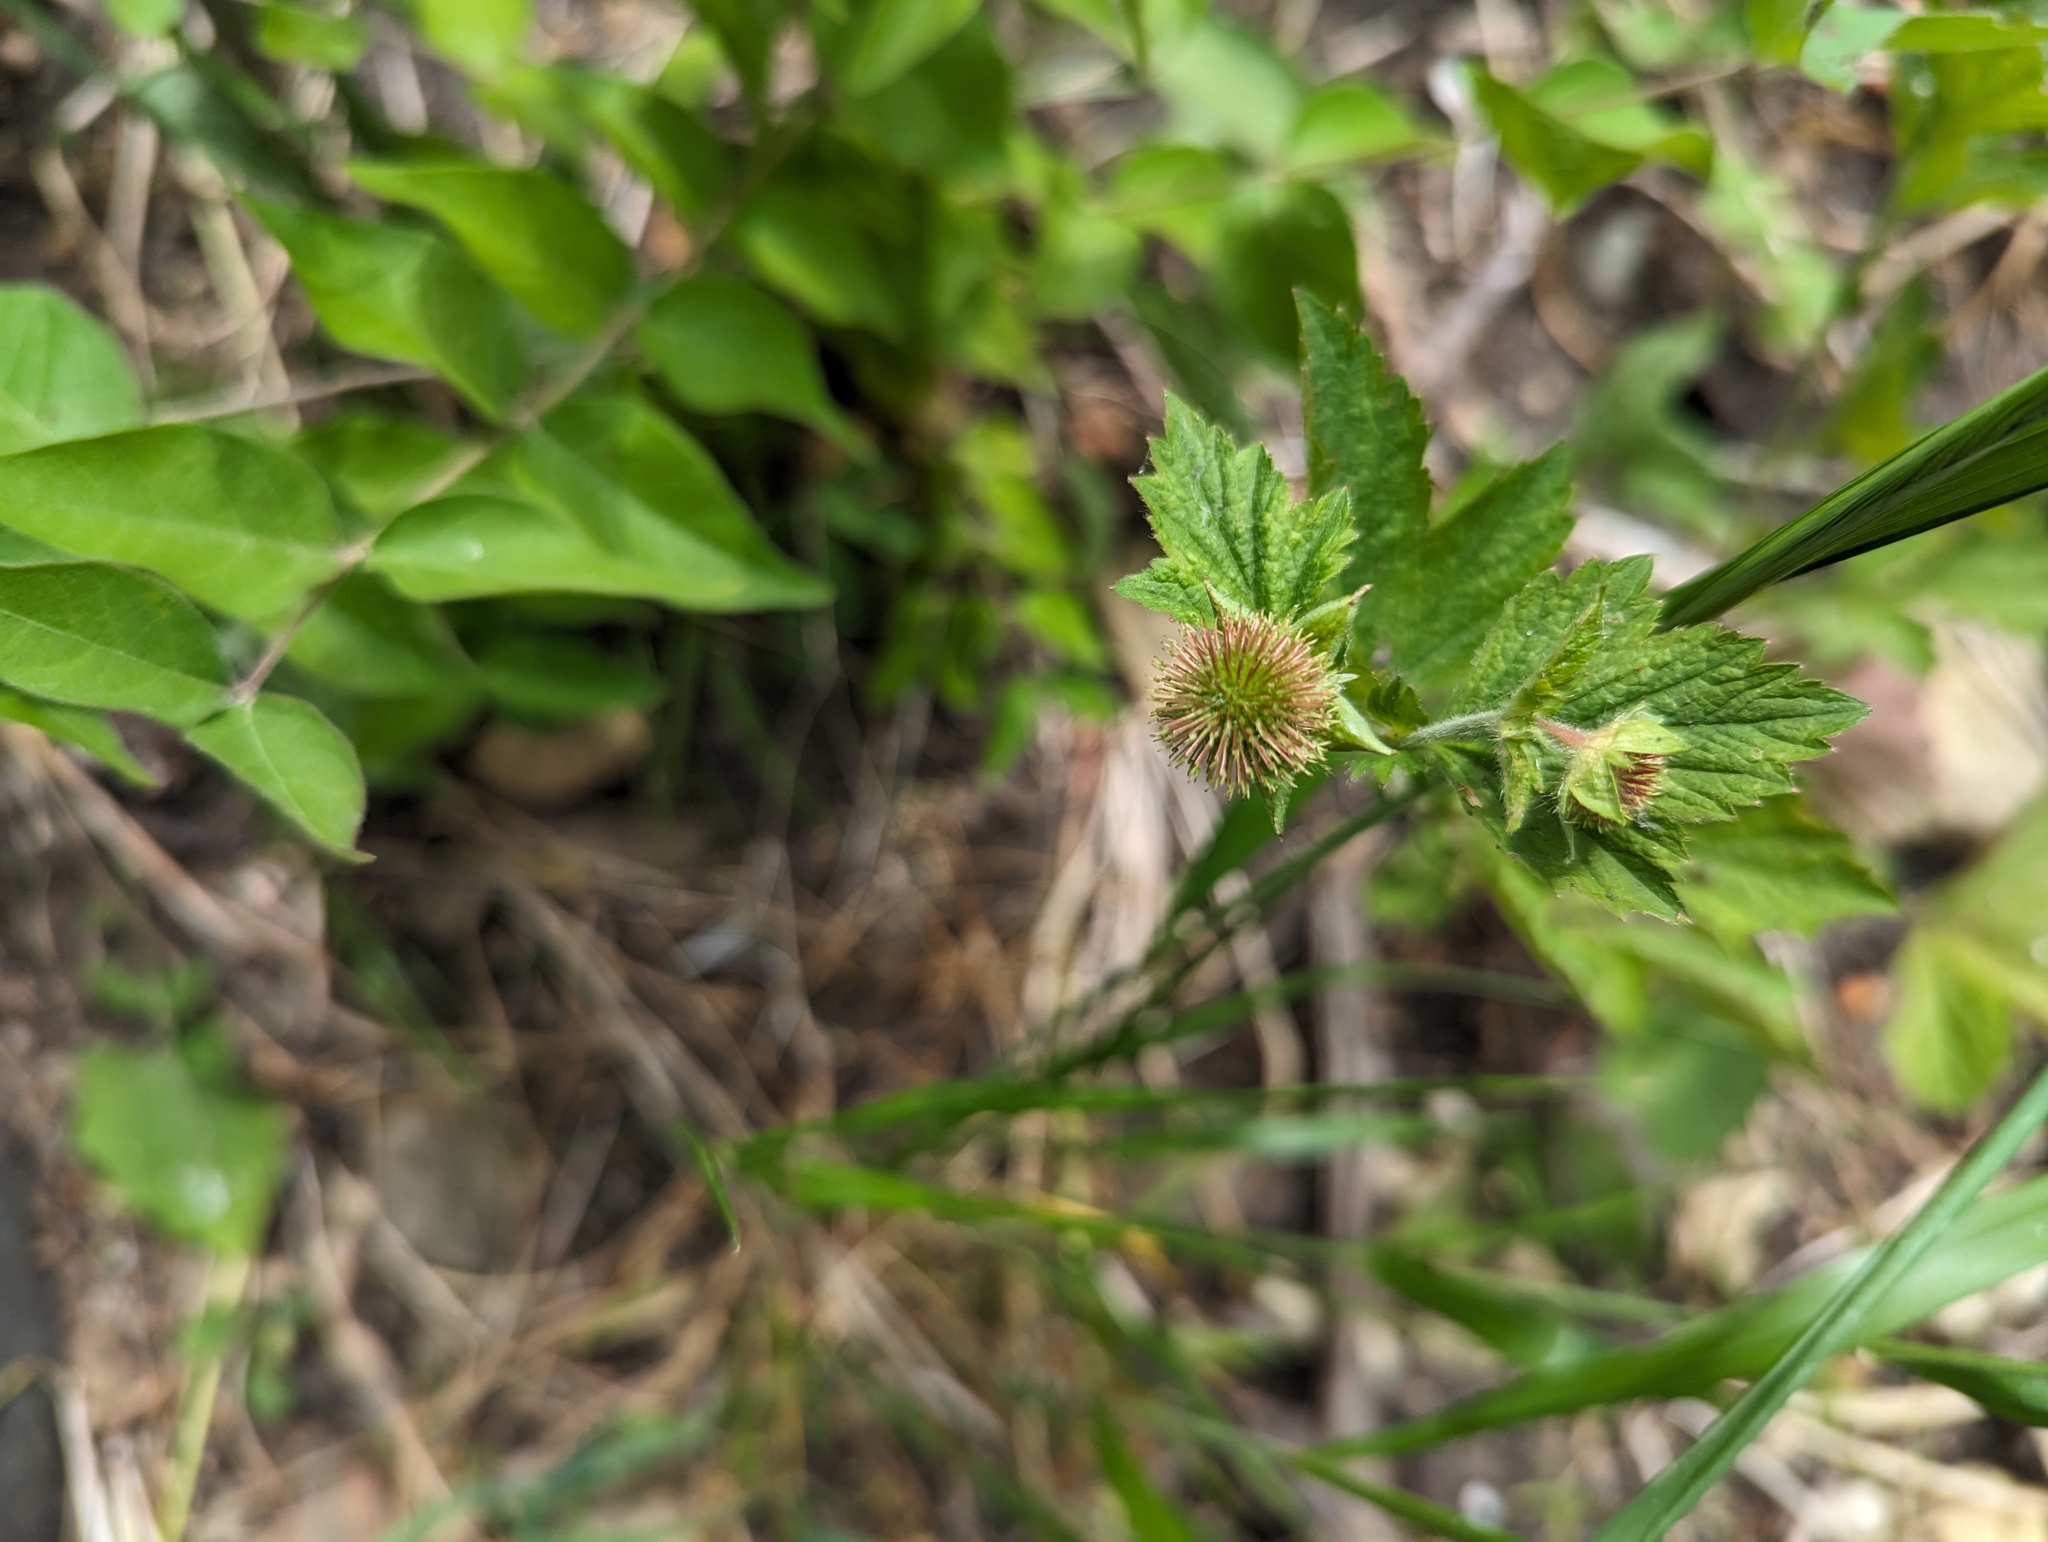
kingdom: Plantae
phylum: Tracheophyta
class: Magnoliopsida
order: Rosales
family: Rosaceae
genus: Geum
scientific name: Geum laciniatum
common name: Rough avens
